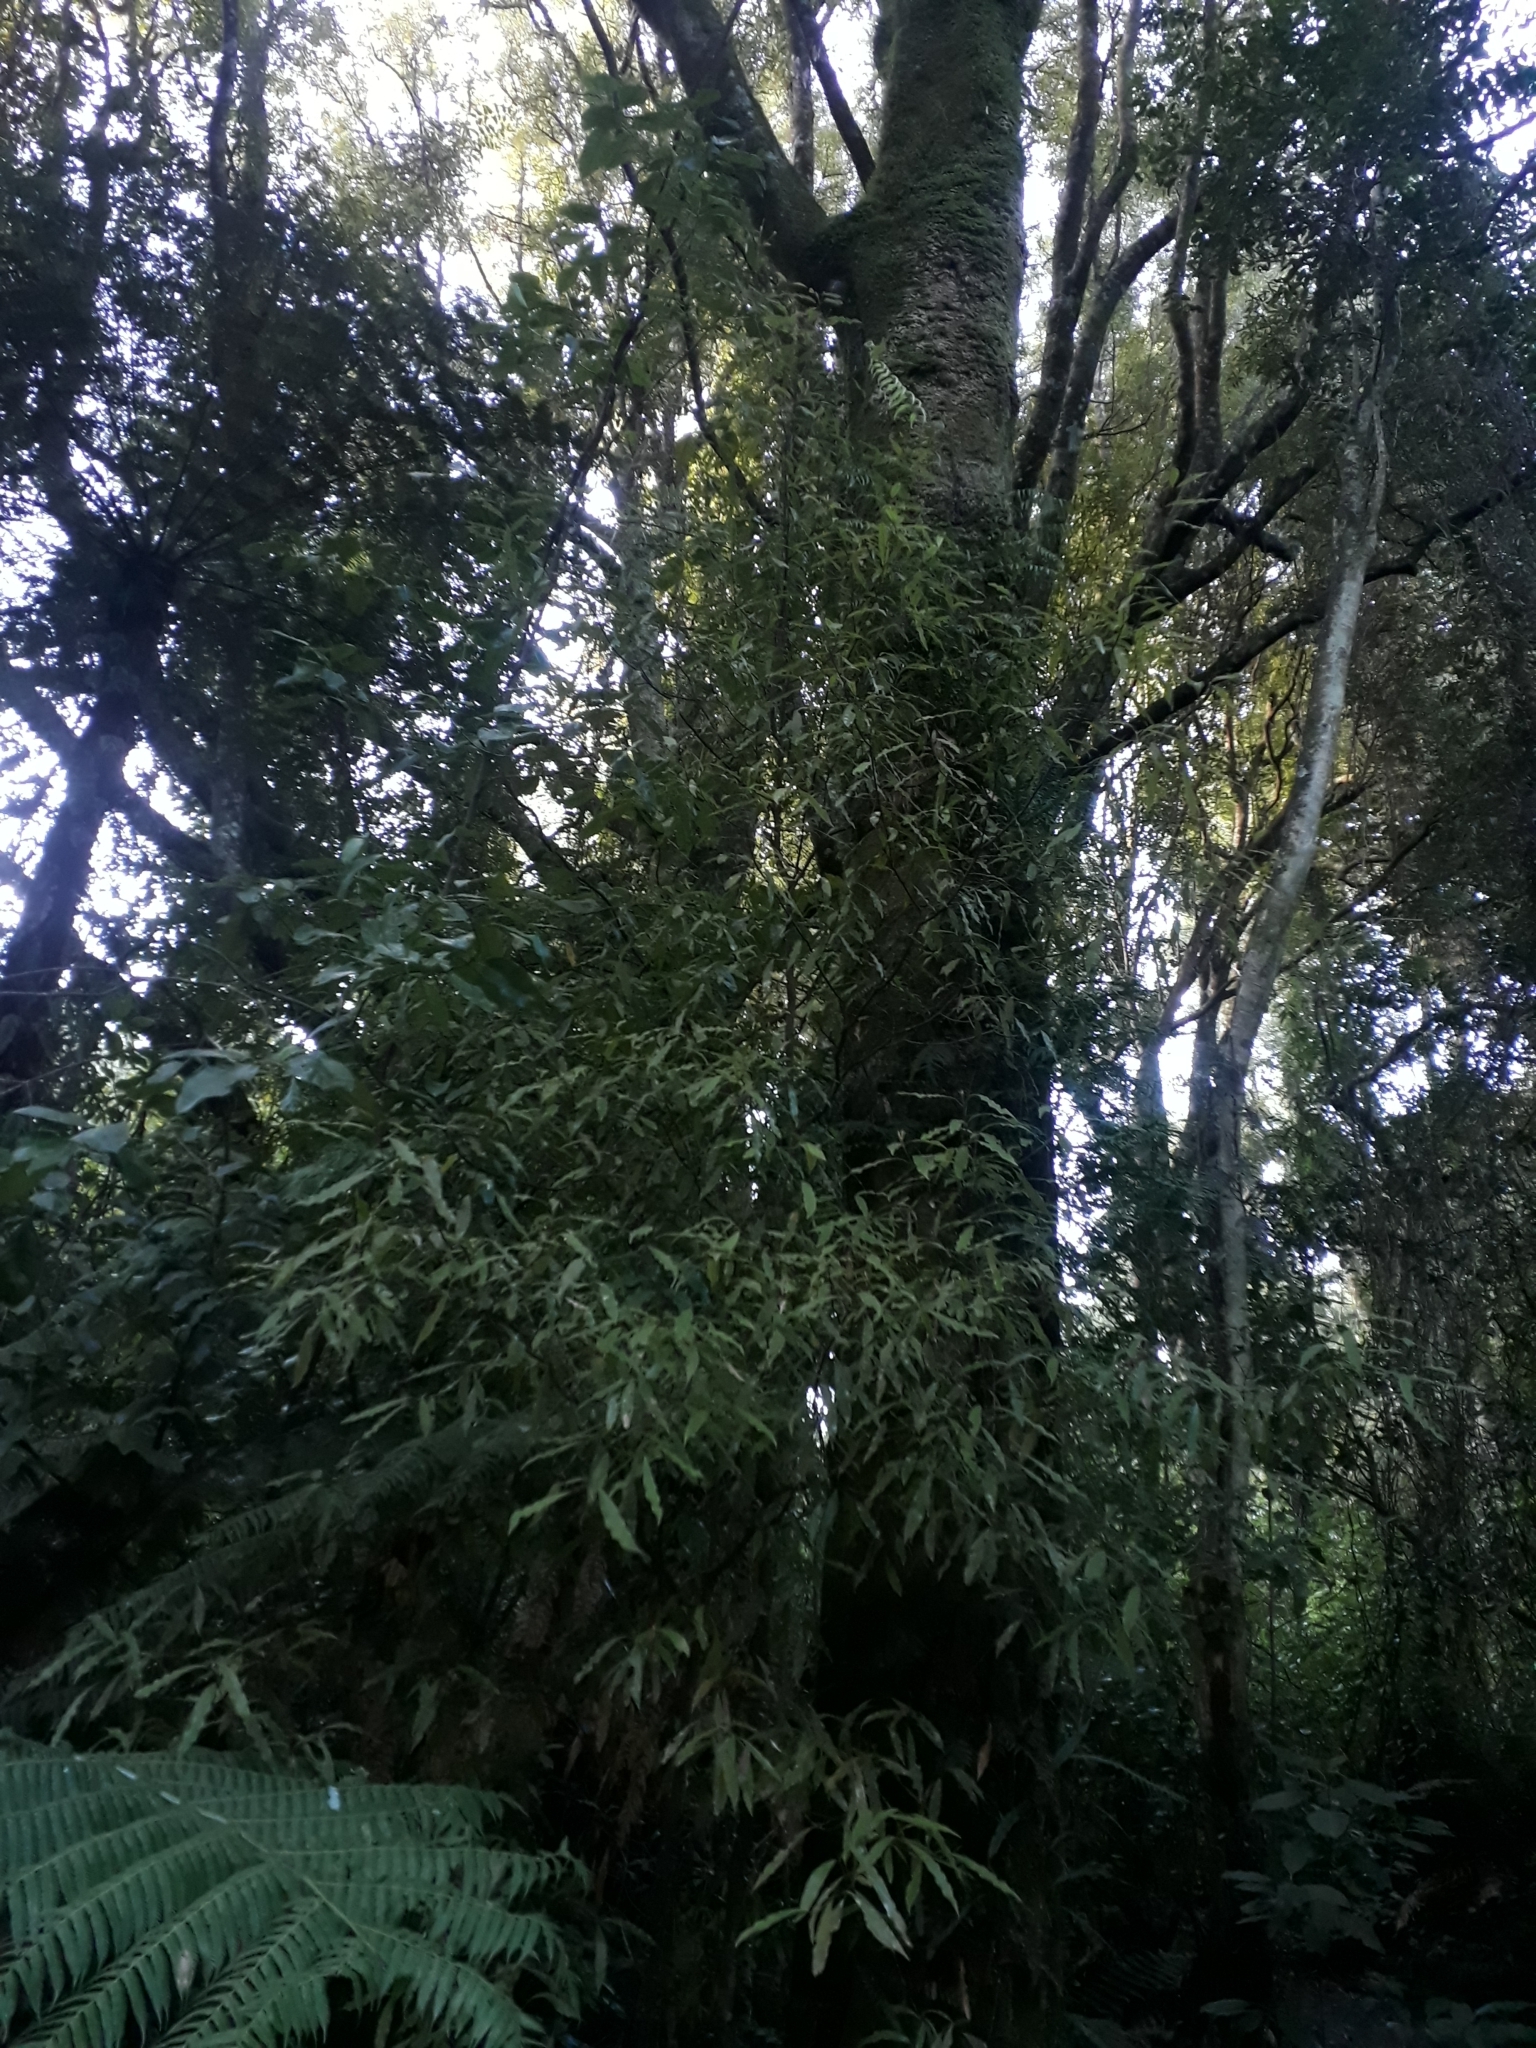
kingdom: Plantae
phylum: Tracheophyta
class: Magnoliopsida
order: Laurales
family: Lauraceae
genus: Beilschmiedia
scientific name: Beilschmiedia tawa
